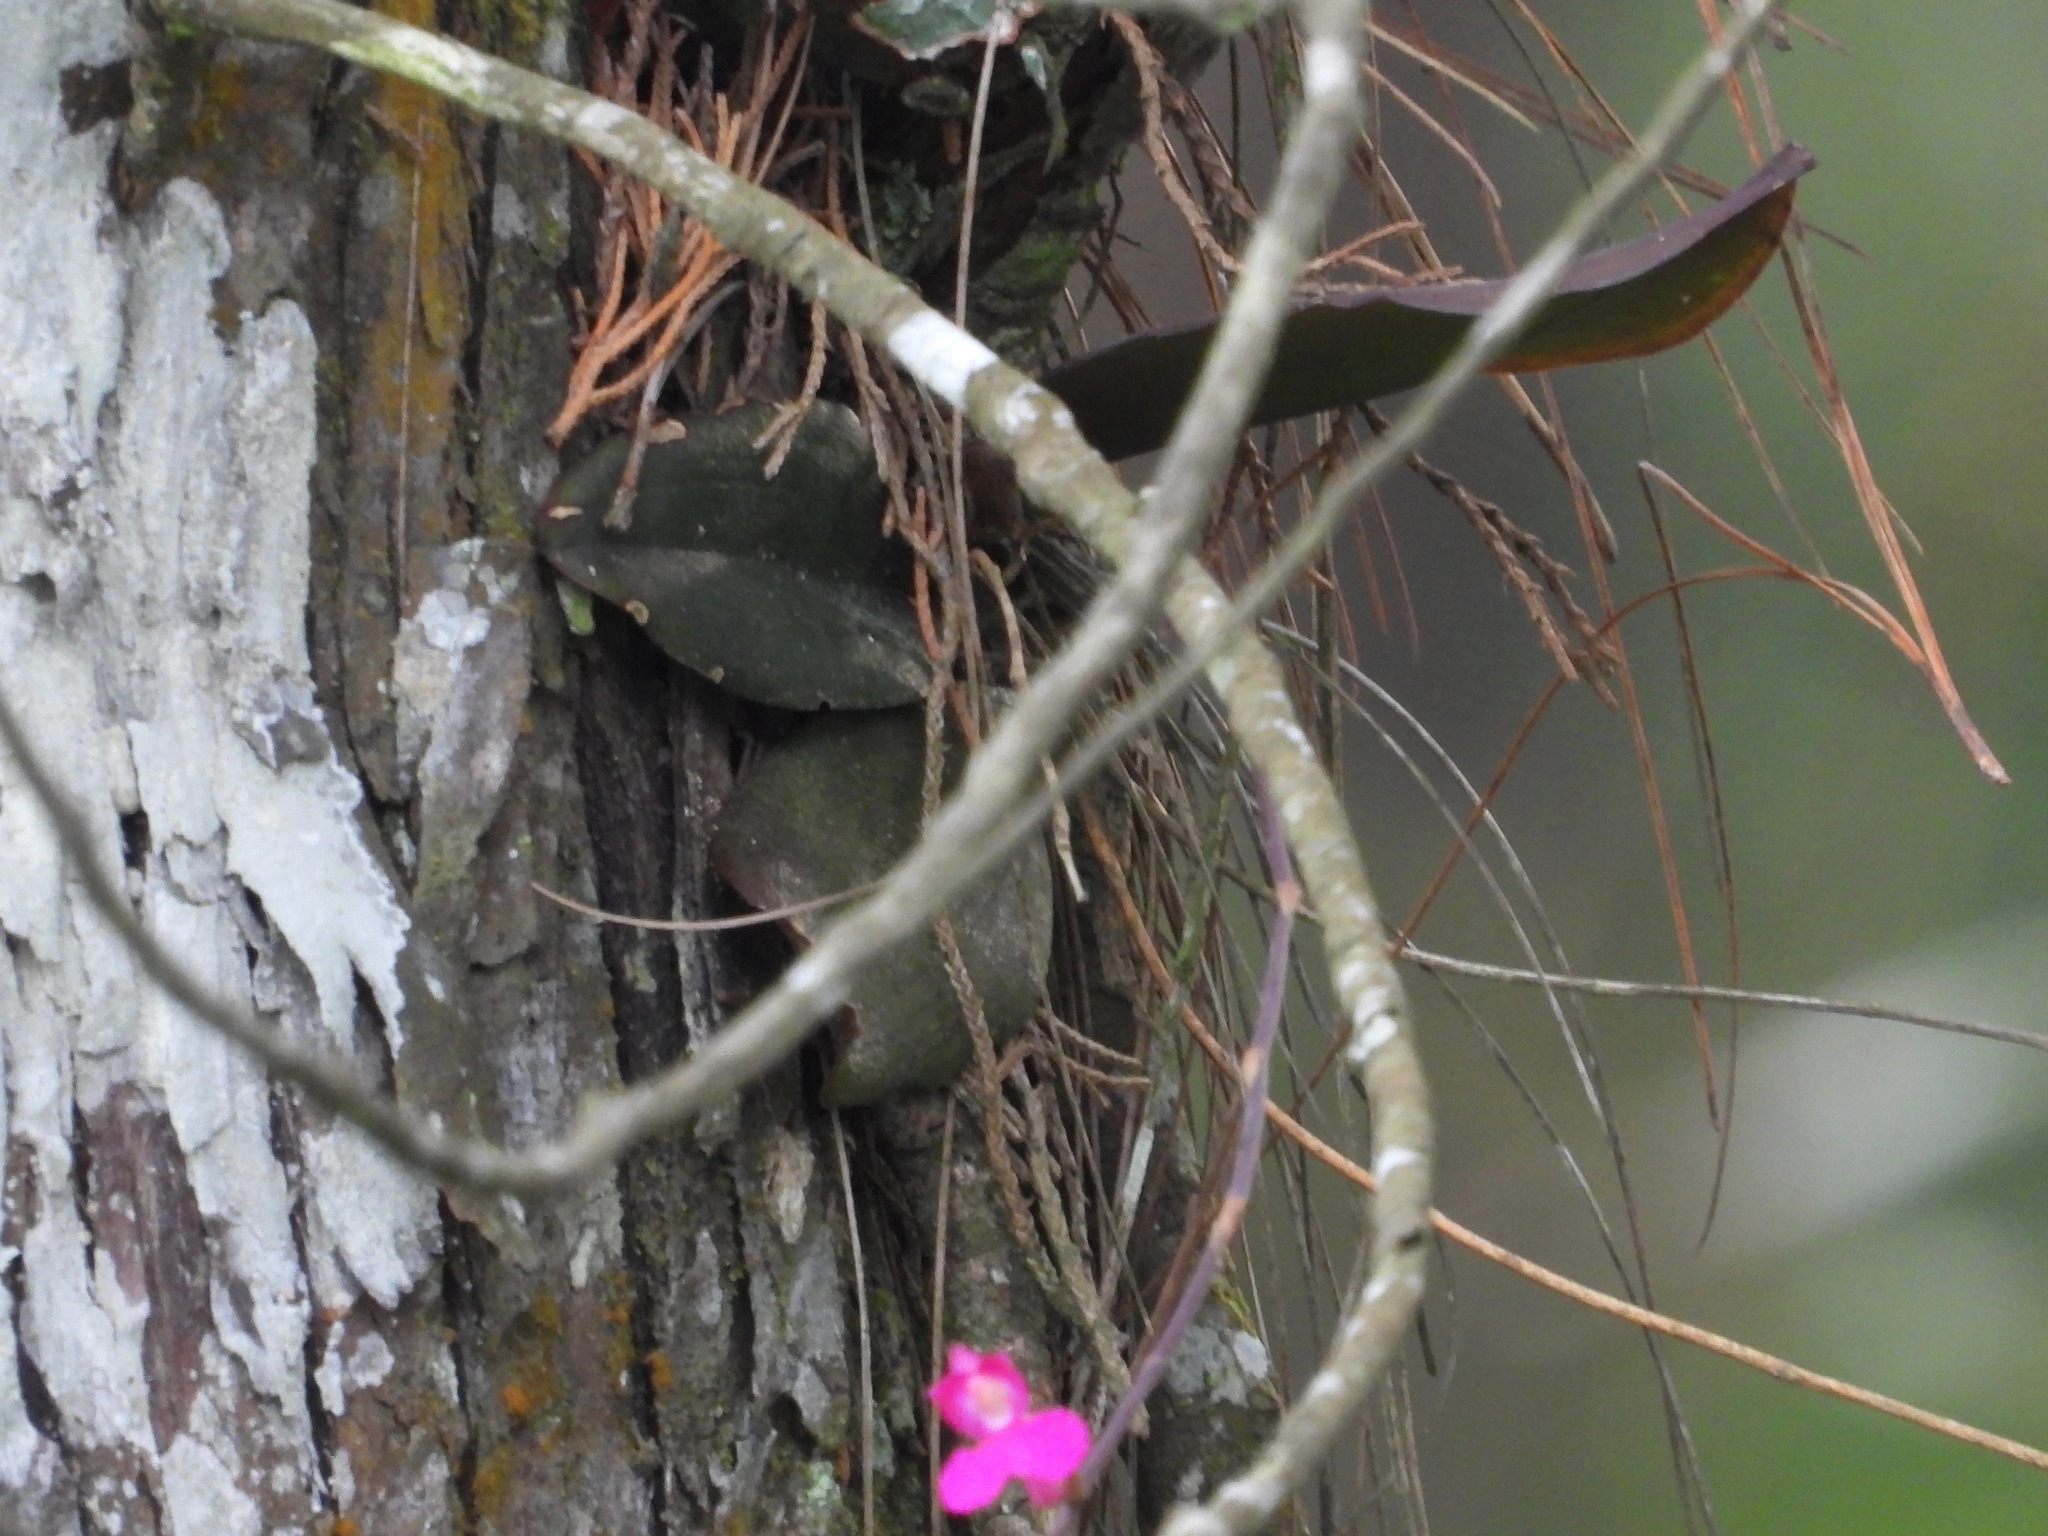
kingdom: Plantae
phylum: Tracheophyta
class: Liliopsida
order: Asparagales
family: Orchidaceae
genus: Comparettia
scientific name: Comparettia falcata
